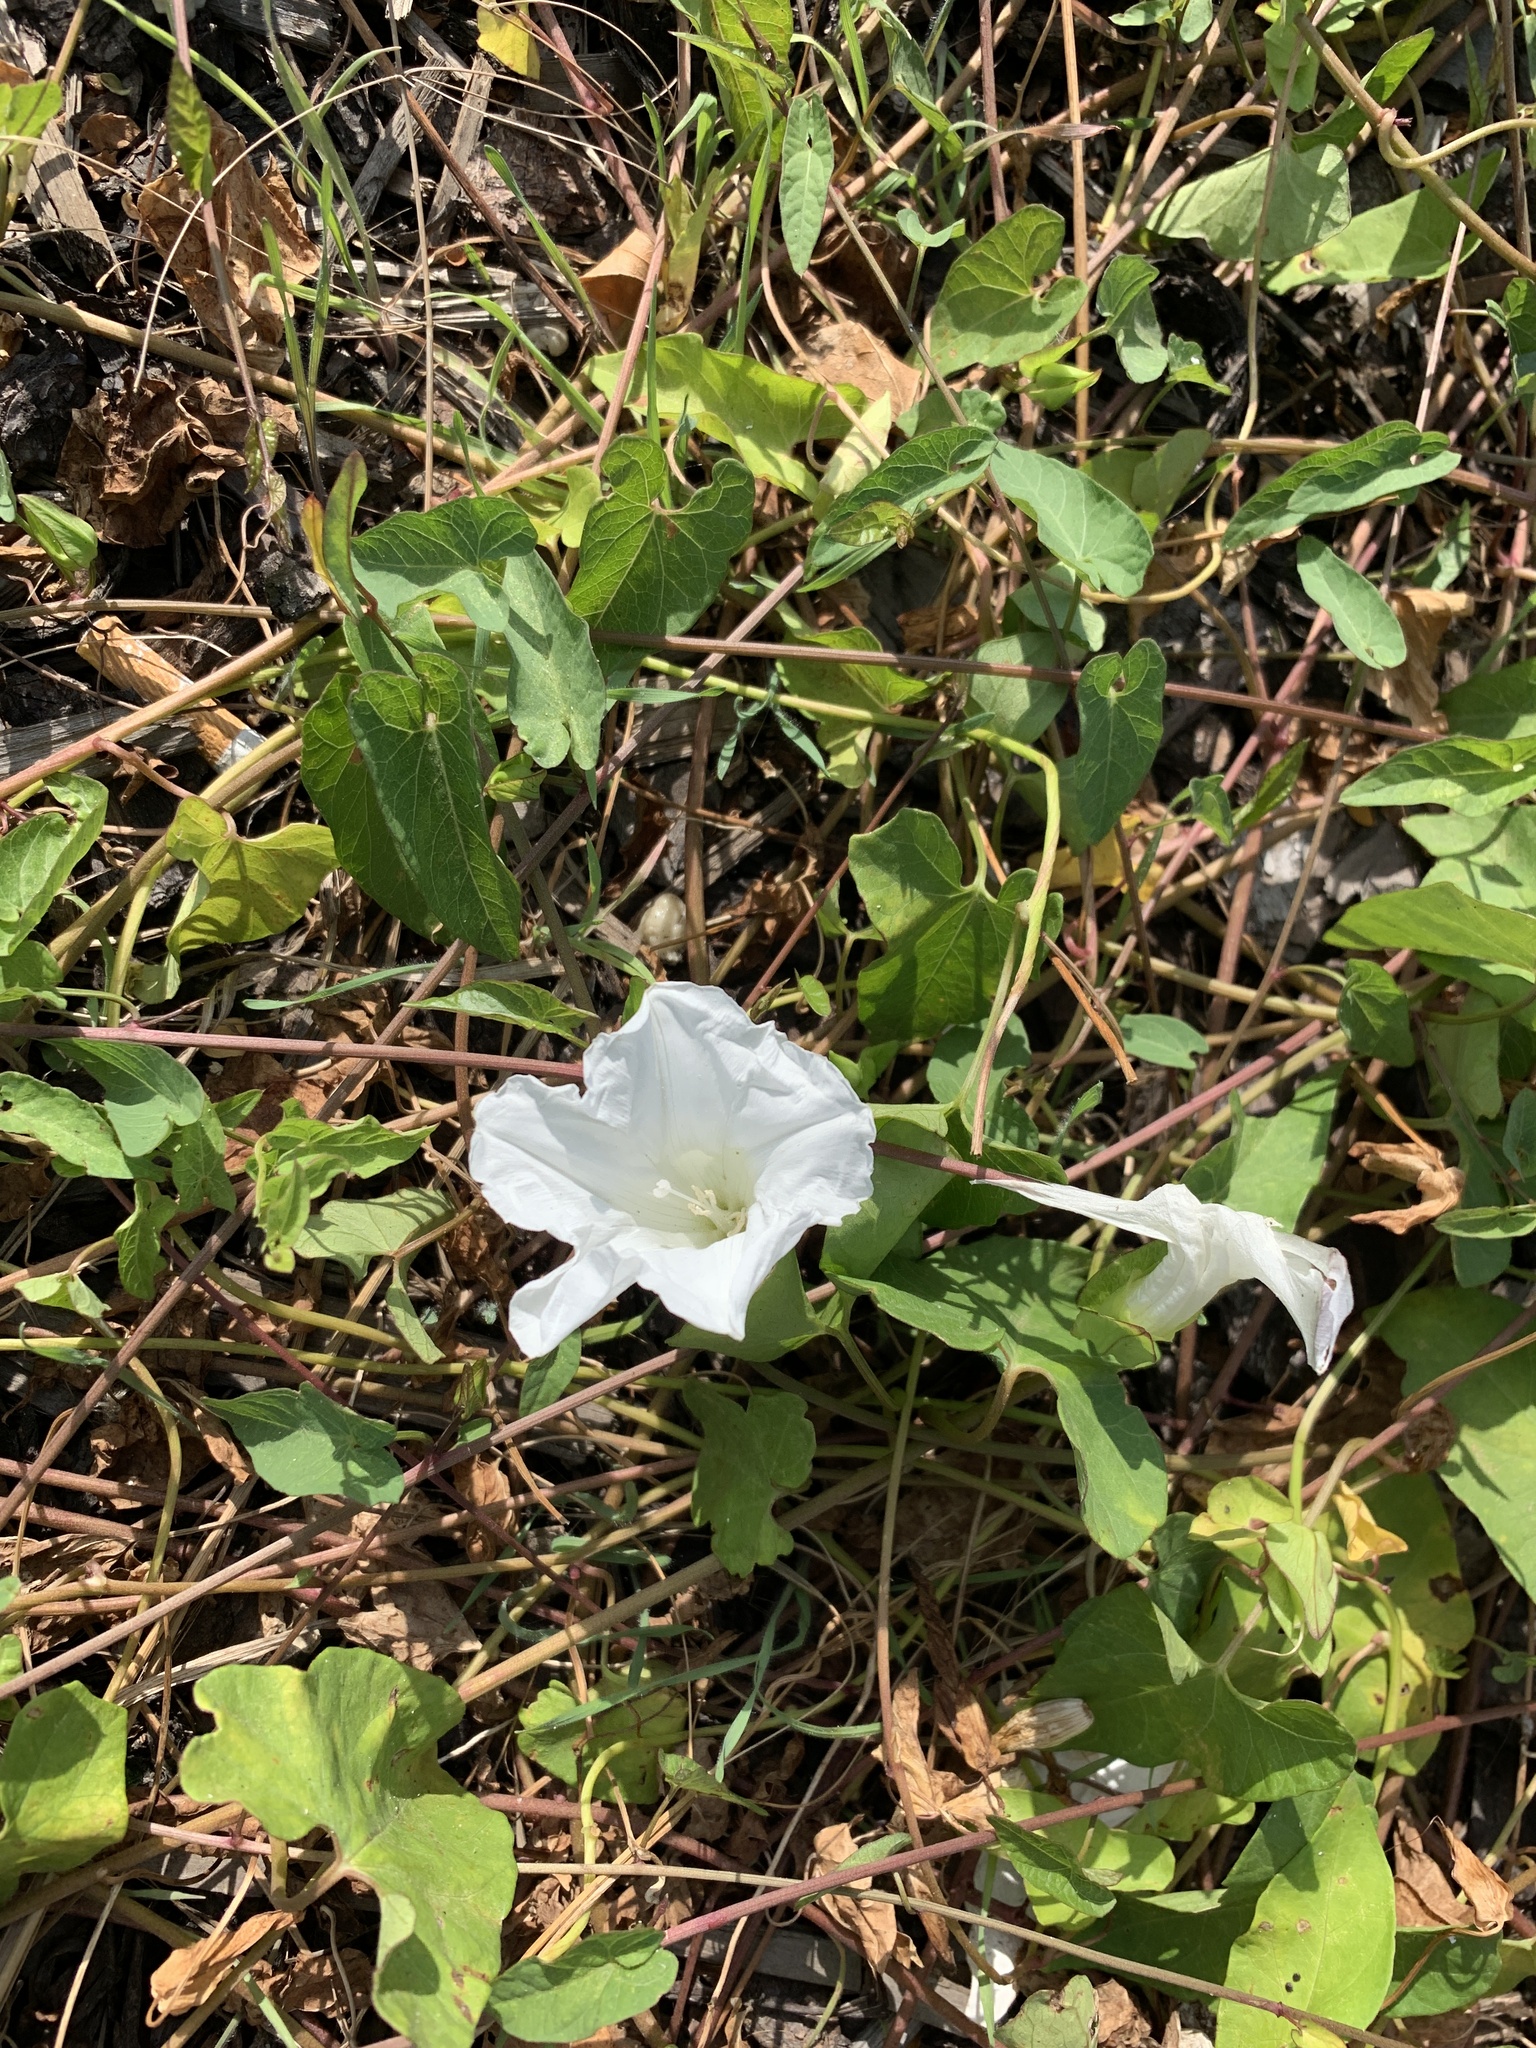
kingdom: Plantae
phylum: Tracheophyta
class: Magnoliopsida
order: Solanales
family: Convolvulaceae
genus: Calystegia
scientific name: Calystegia sepium
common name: Hedge bindweed
